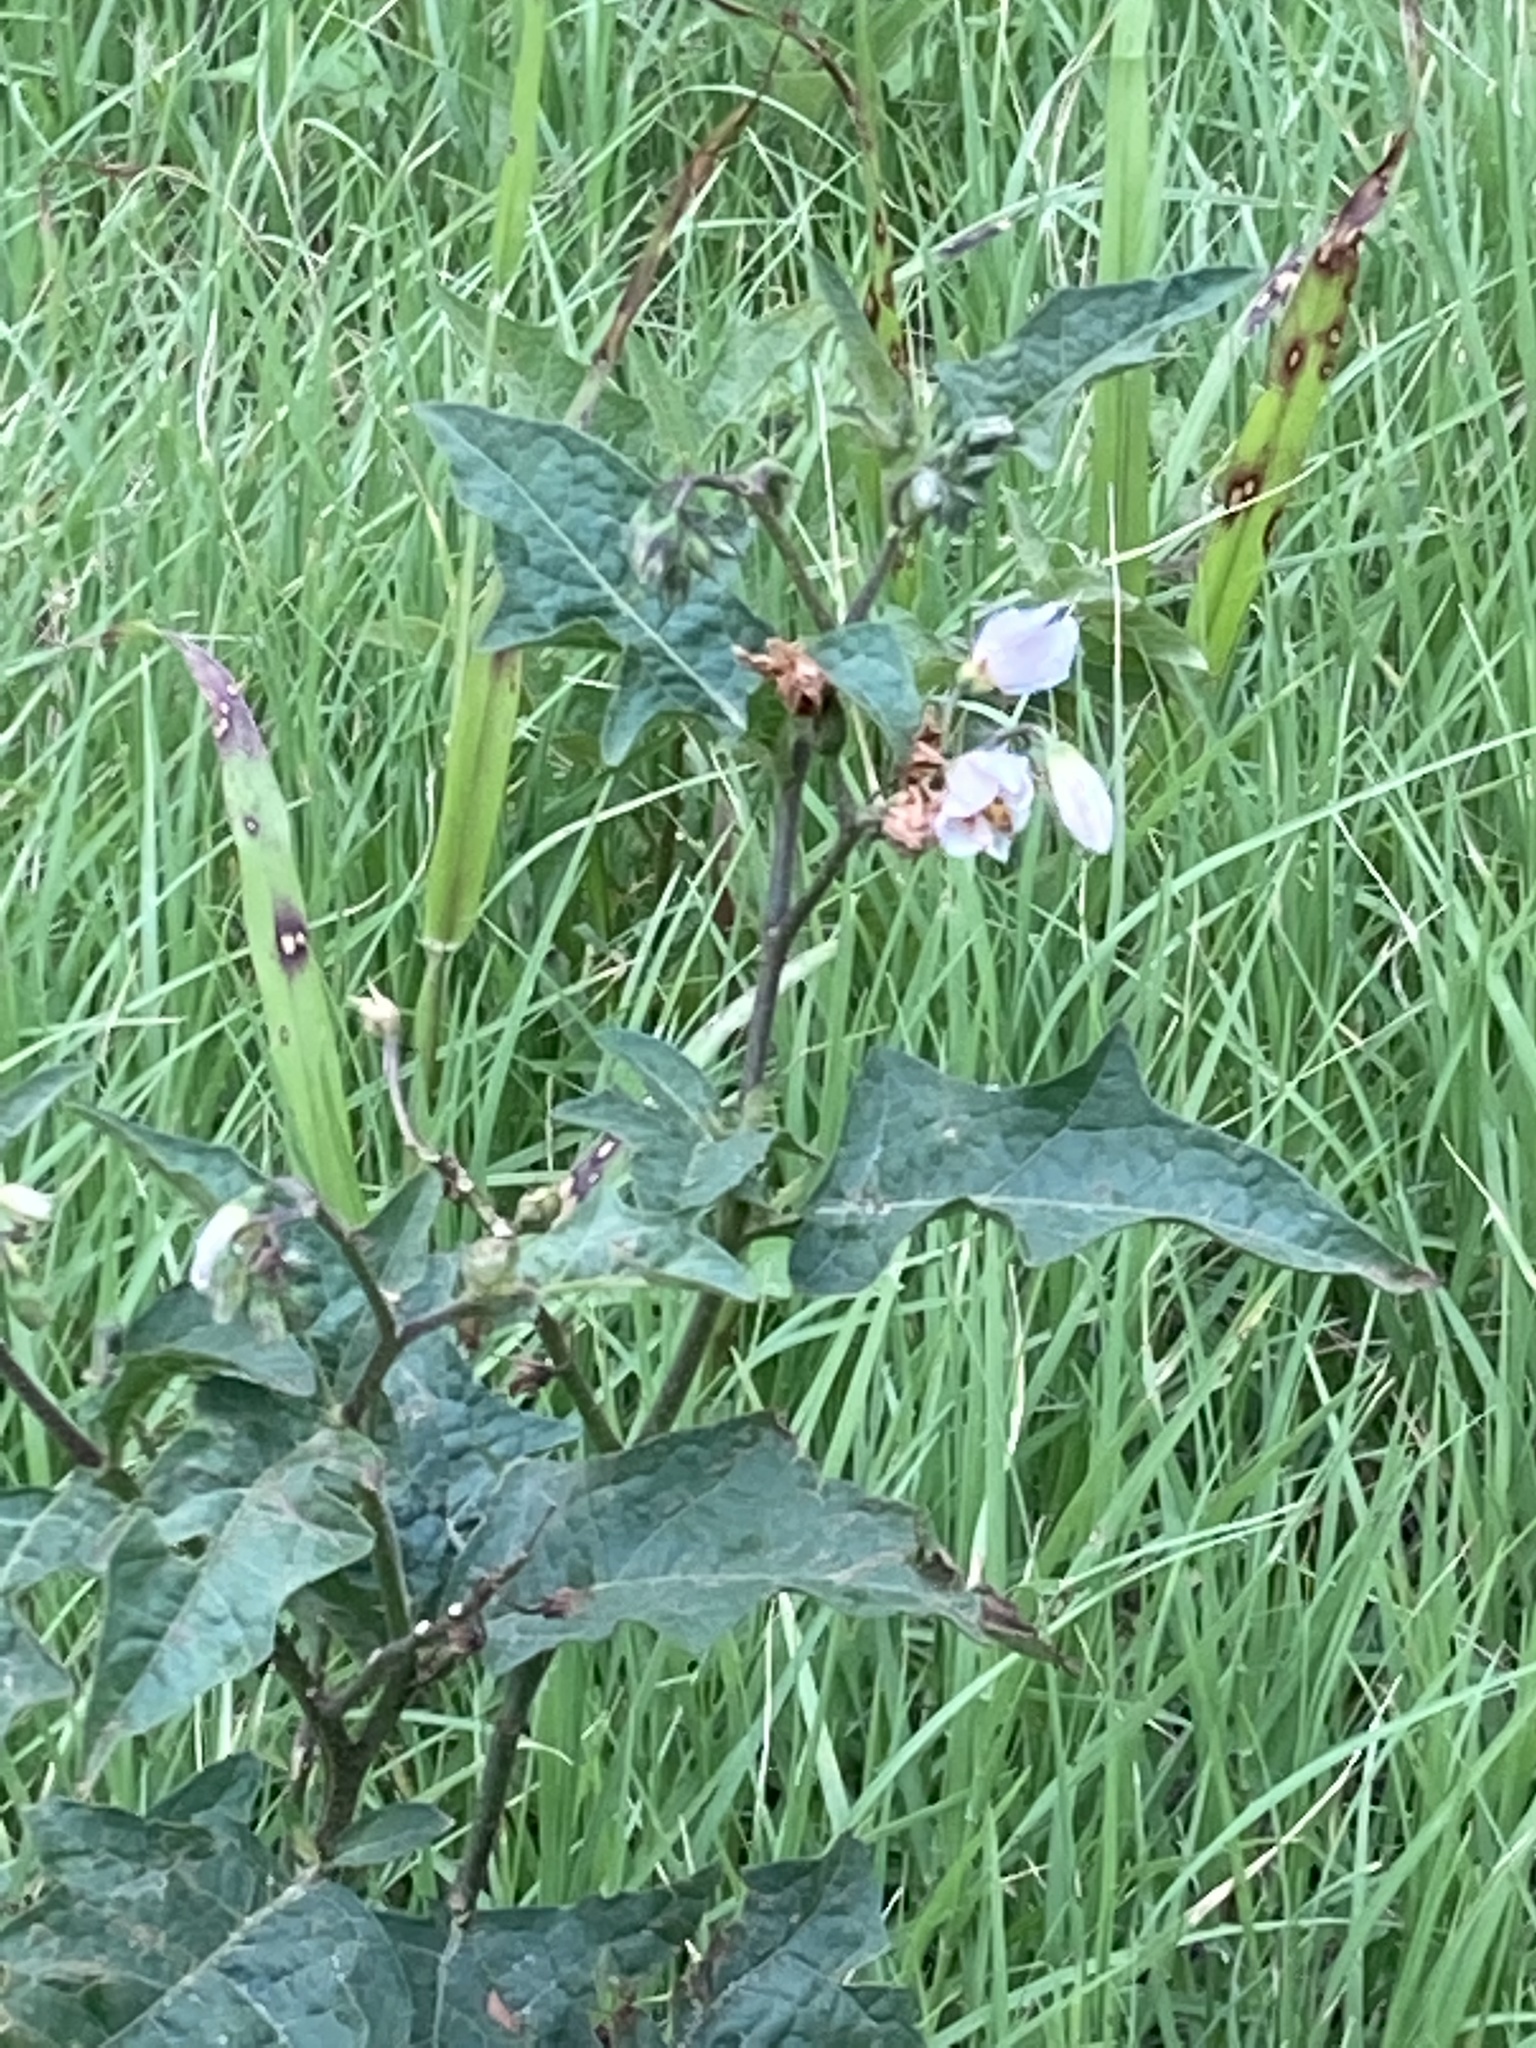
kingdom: Plantae
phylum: Tracheophyta
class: Magnoliopsida
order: Solanales
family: Solanaceae
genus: Solanum
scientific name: Solanum carolinense
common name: Horse-nettle
